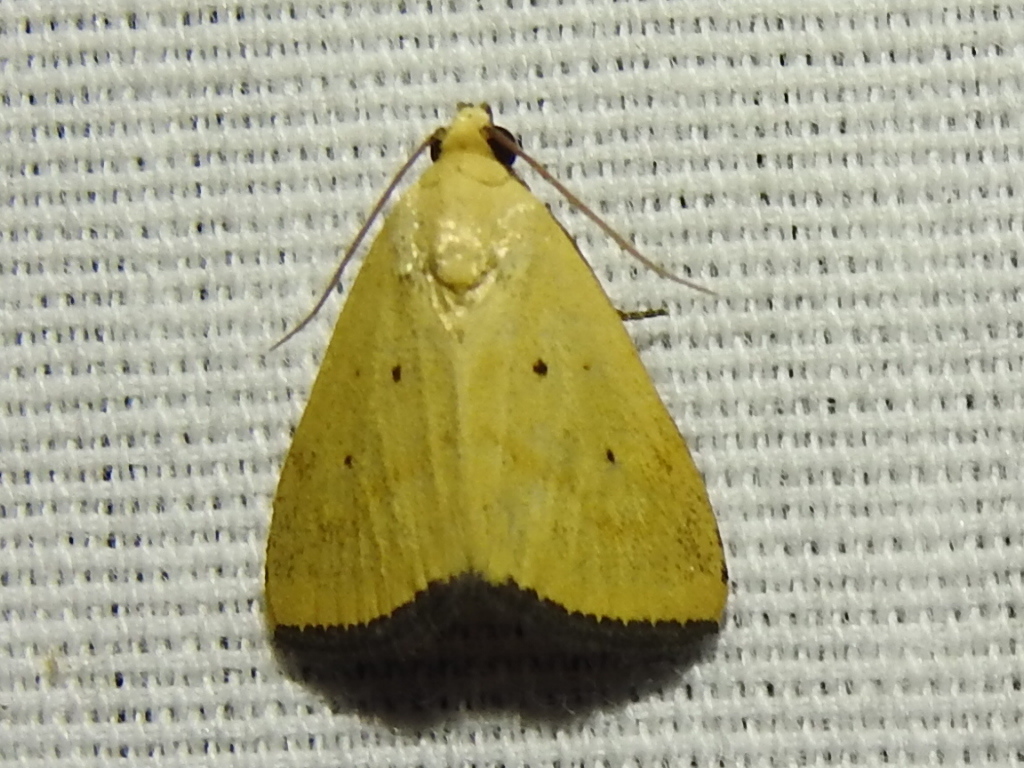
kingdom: Animalia
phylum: Arthropoda
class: Insecta
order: Lepidoptera
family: Noctuidae
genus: Marimatha
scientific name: Marimatha nigrofimbria
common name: Black-bordered lemon moth
